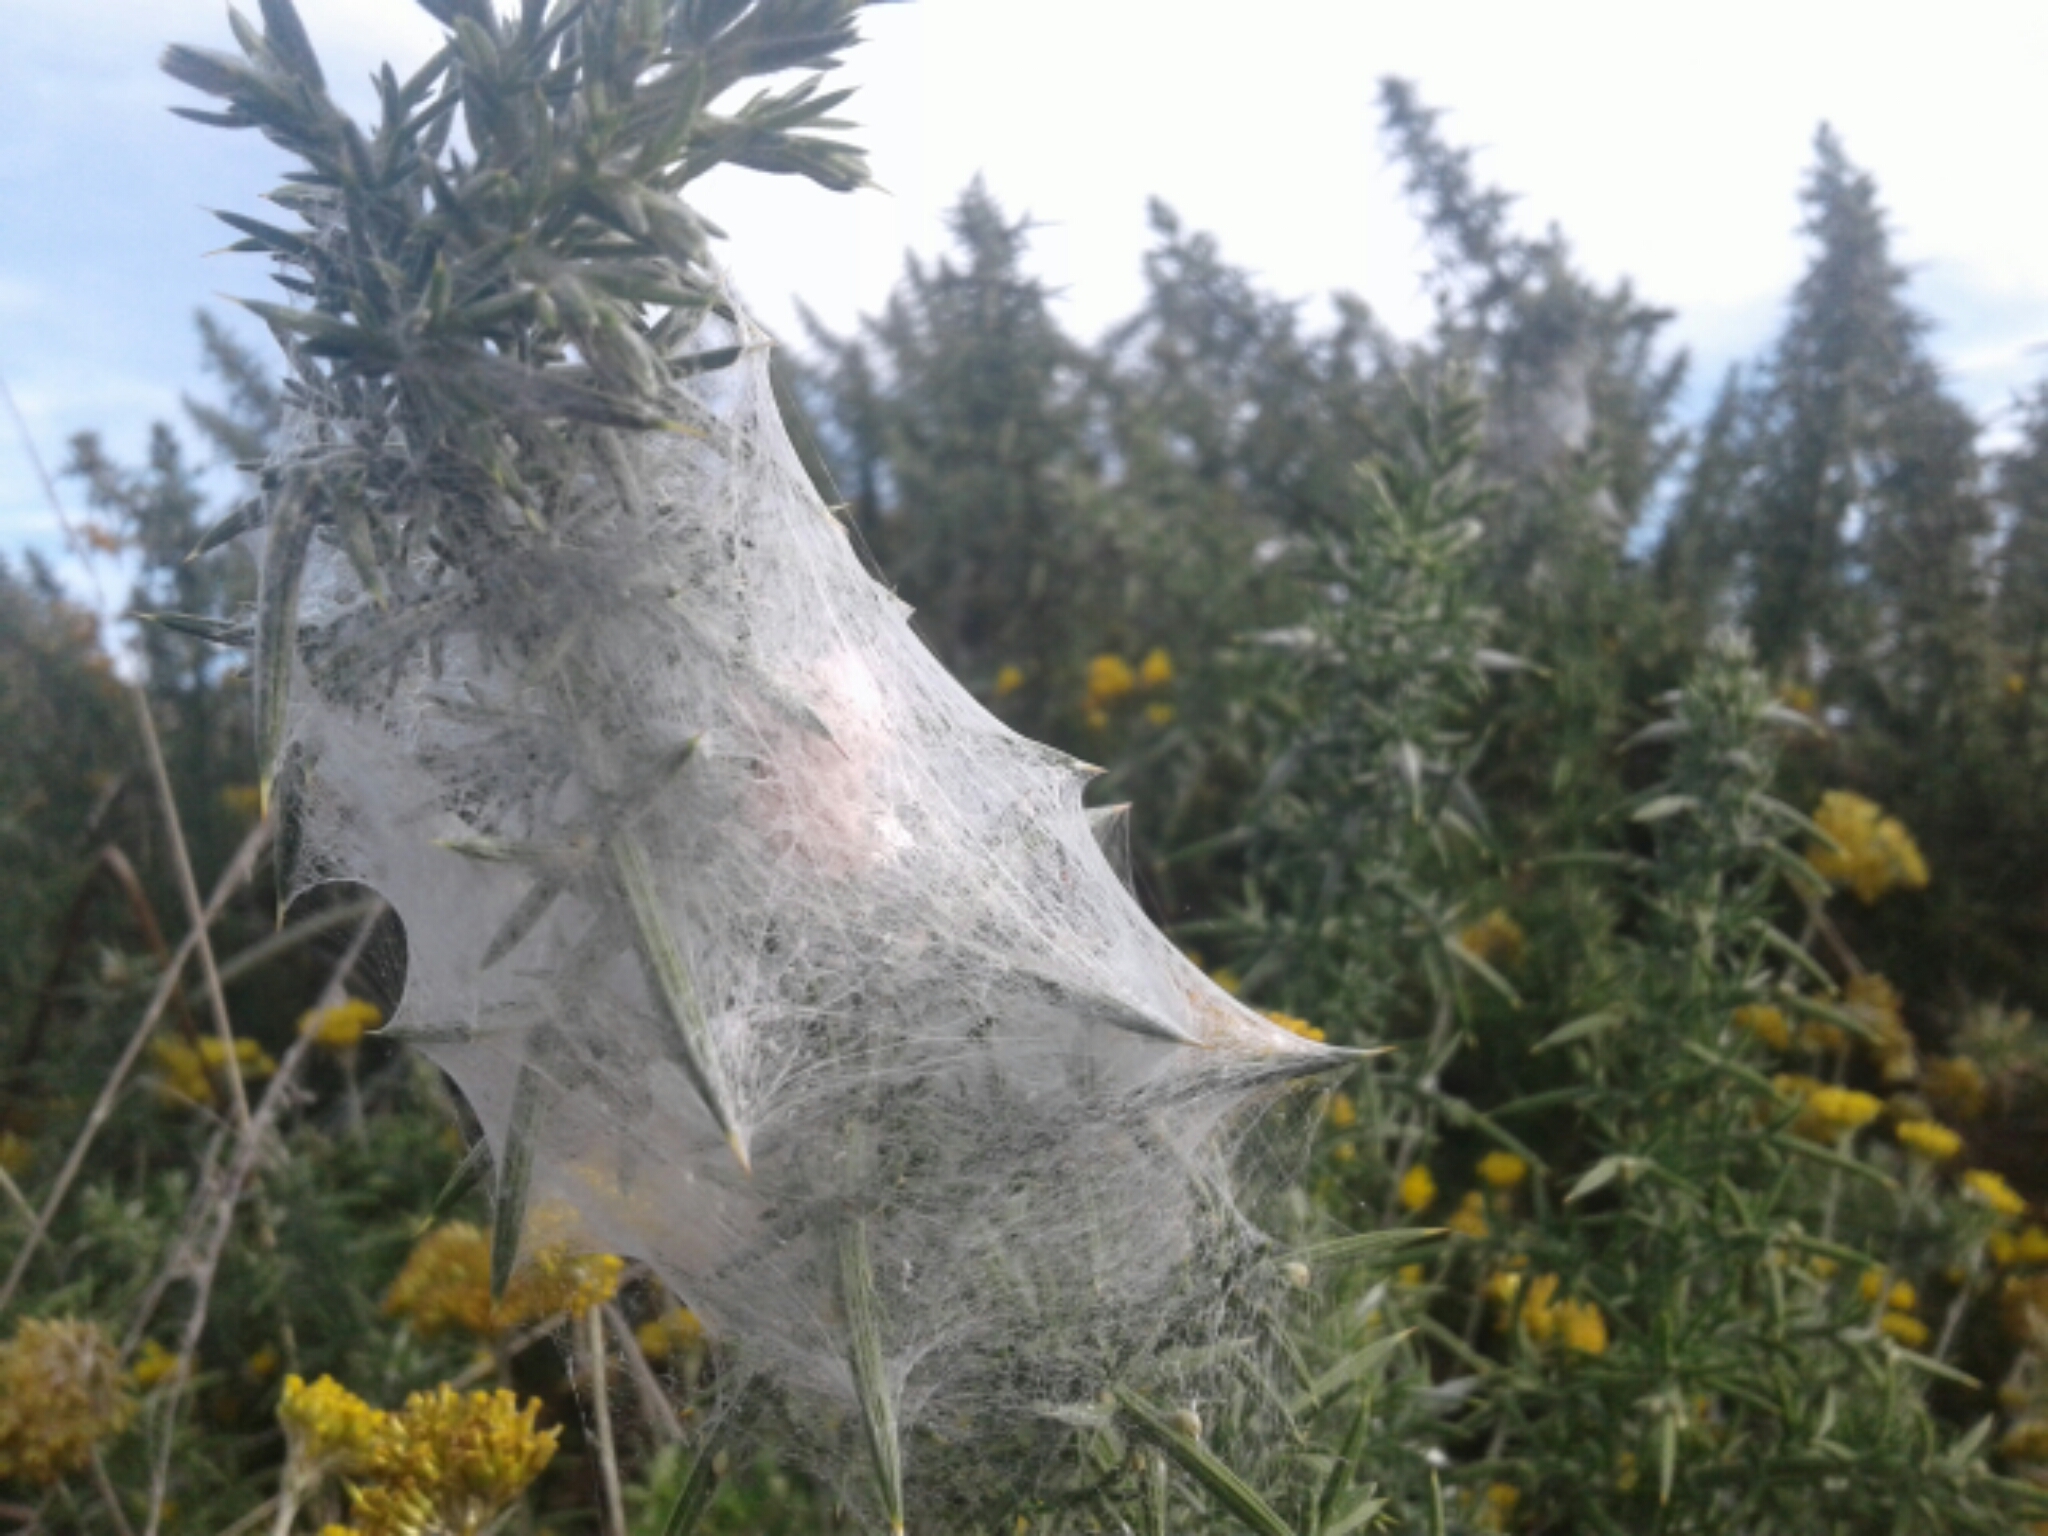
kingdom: Animalia
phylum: Arthropoda
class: Arachnida
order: Araneae
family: Pisauridae
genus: Dolomedes
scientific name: Dolomedes minor
